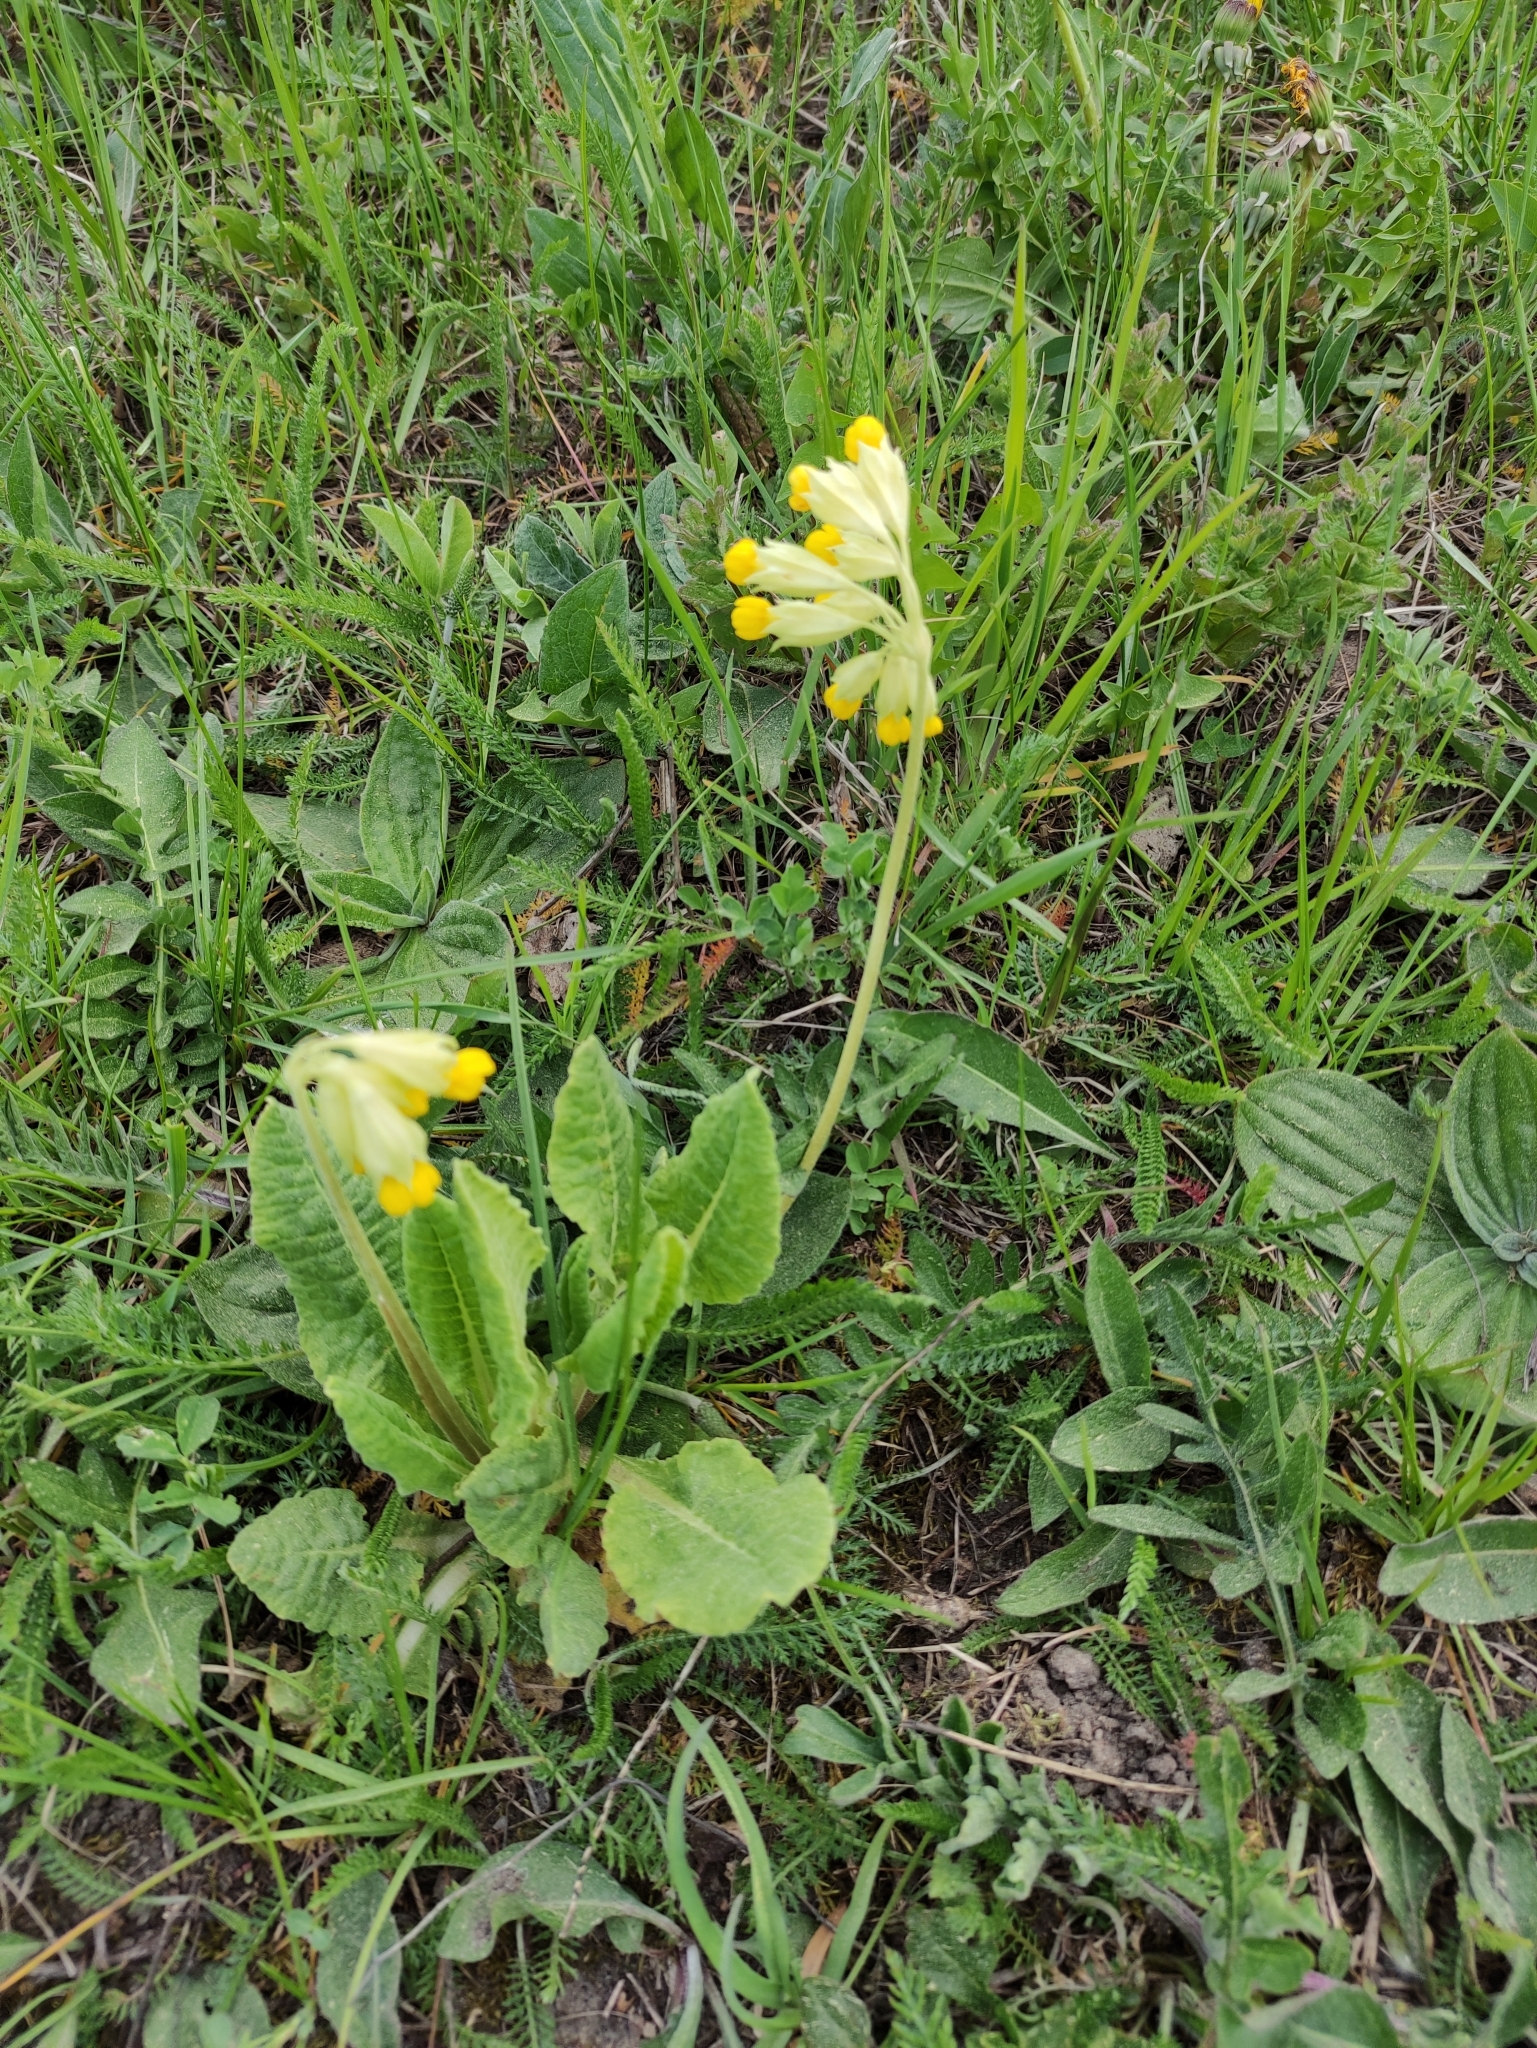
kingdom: Plantae
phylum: Tracheophyta
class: Magnoliopsida
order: Ericales
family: Primulaceae
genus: Primula
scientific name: Primula veris
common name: Cowslip
